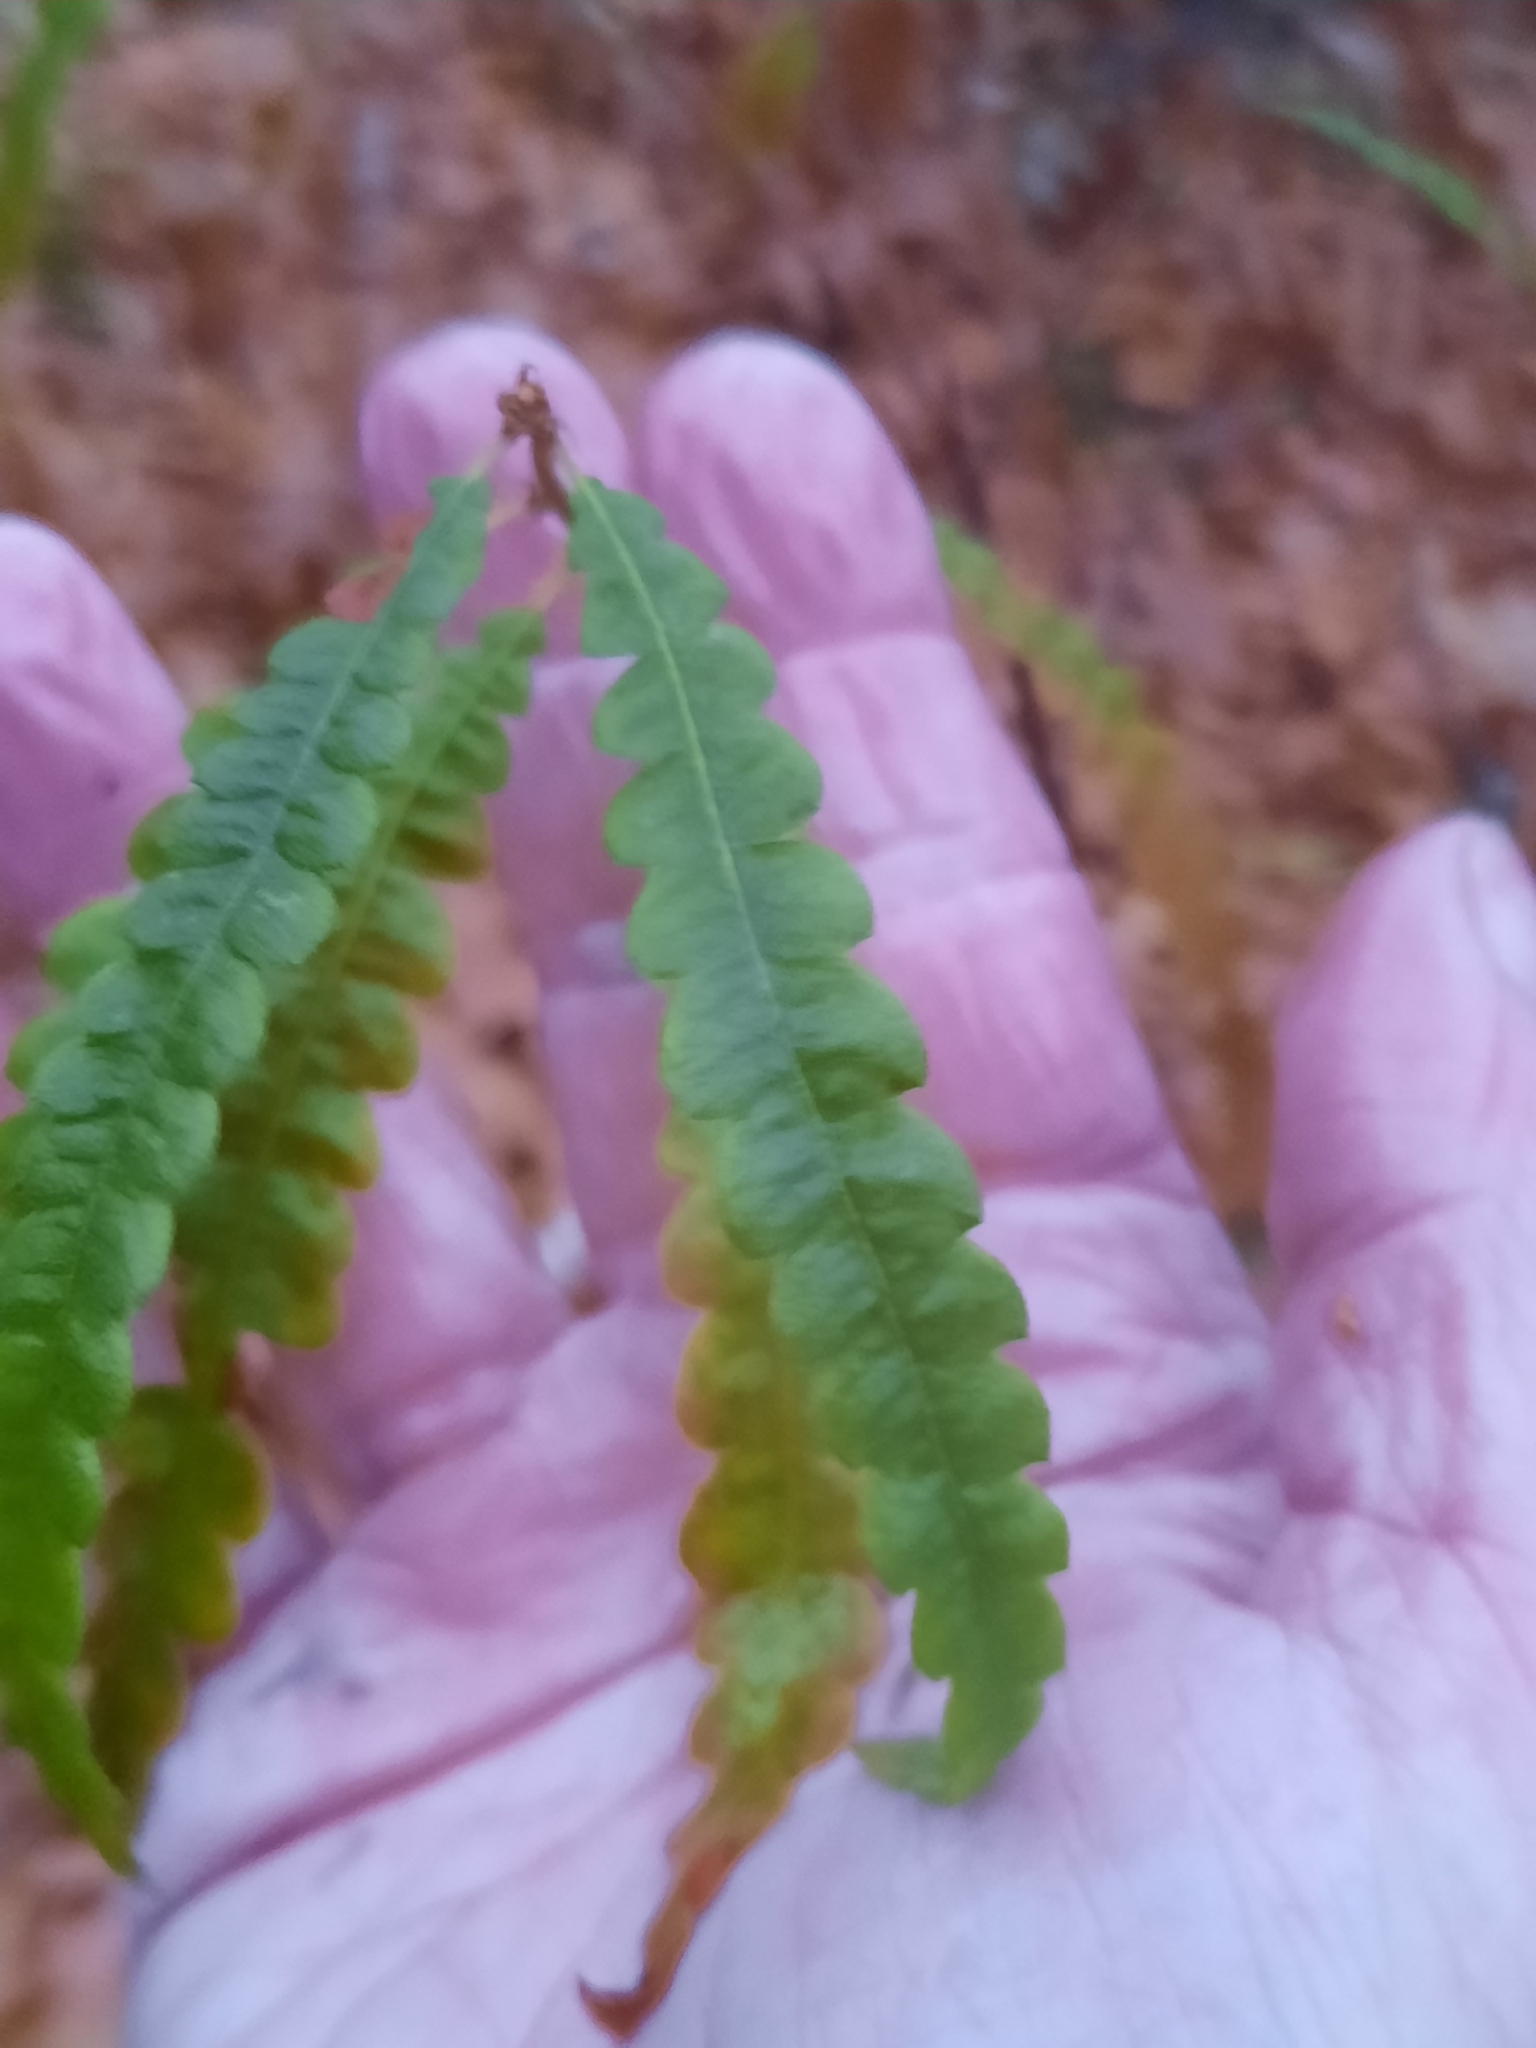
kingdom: Plantae
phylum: Tracheophyta
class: Magnoliopsida
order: Fagales
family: Myricaceae
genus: Comptonia
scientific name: Comptonia peregrina
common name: Sweet-fern
